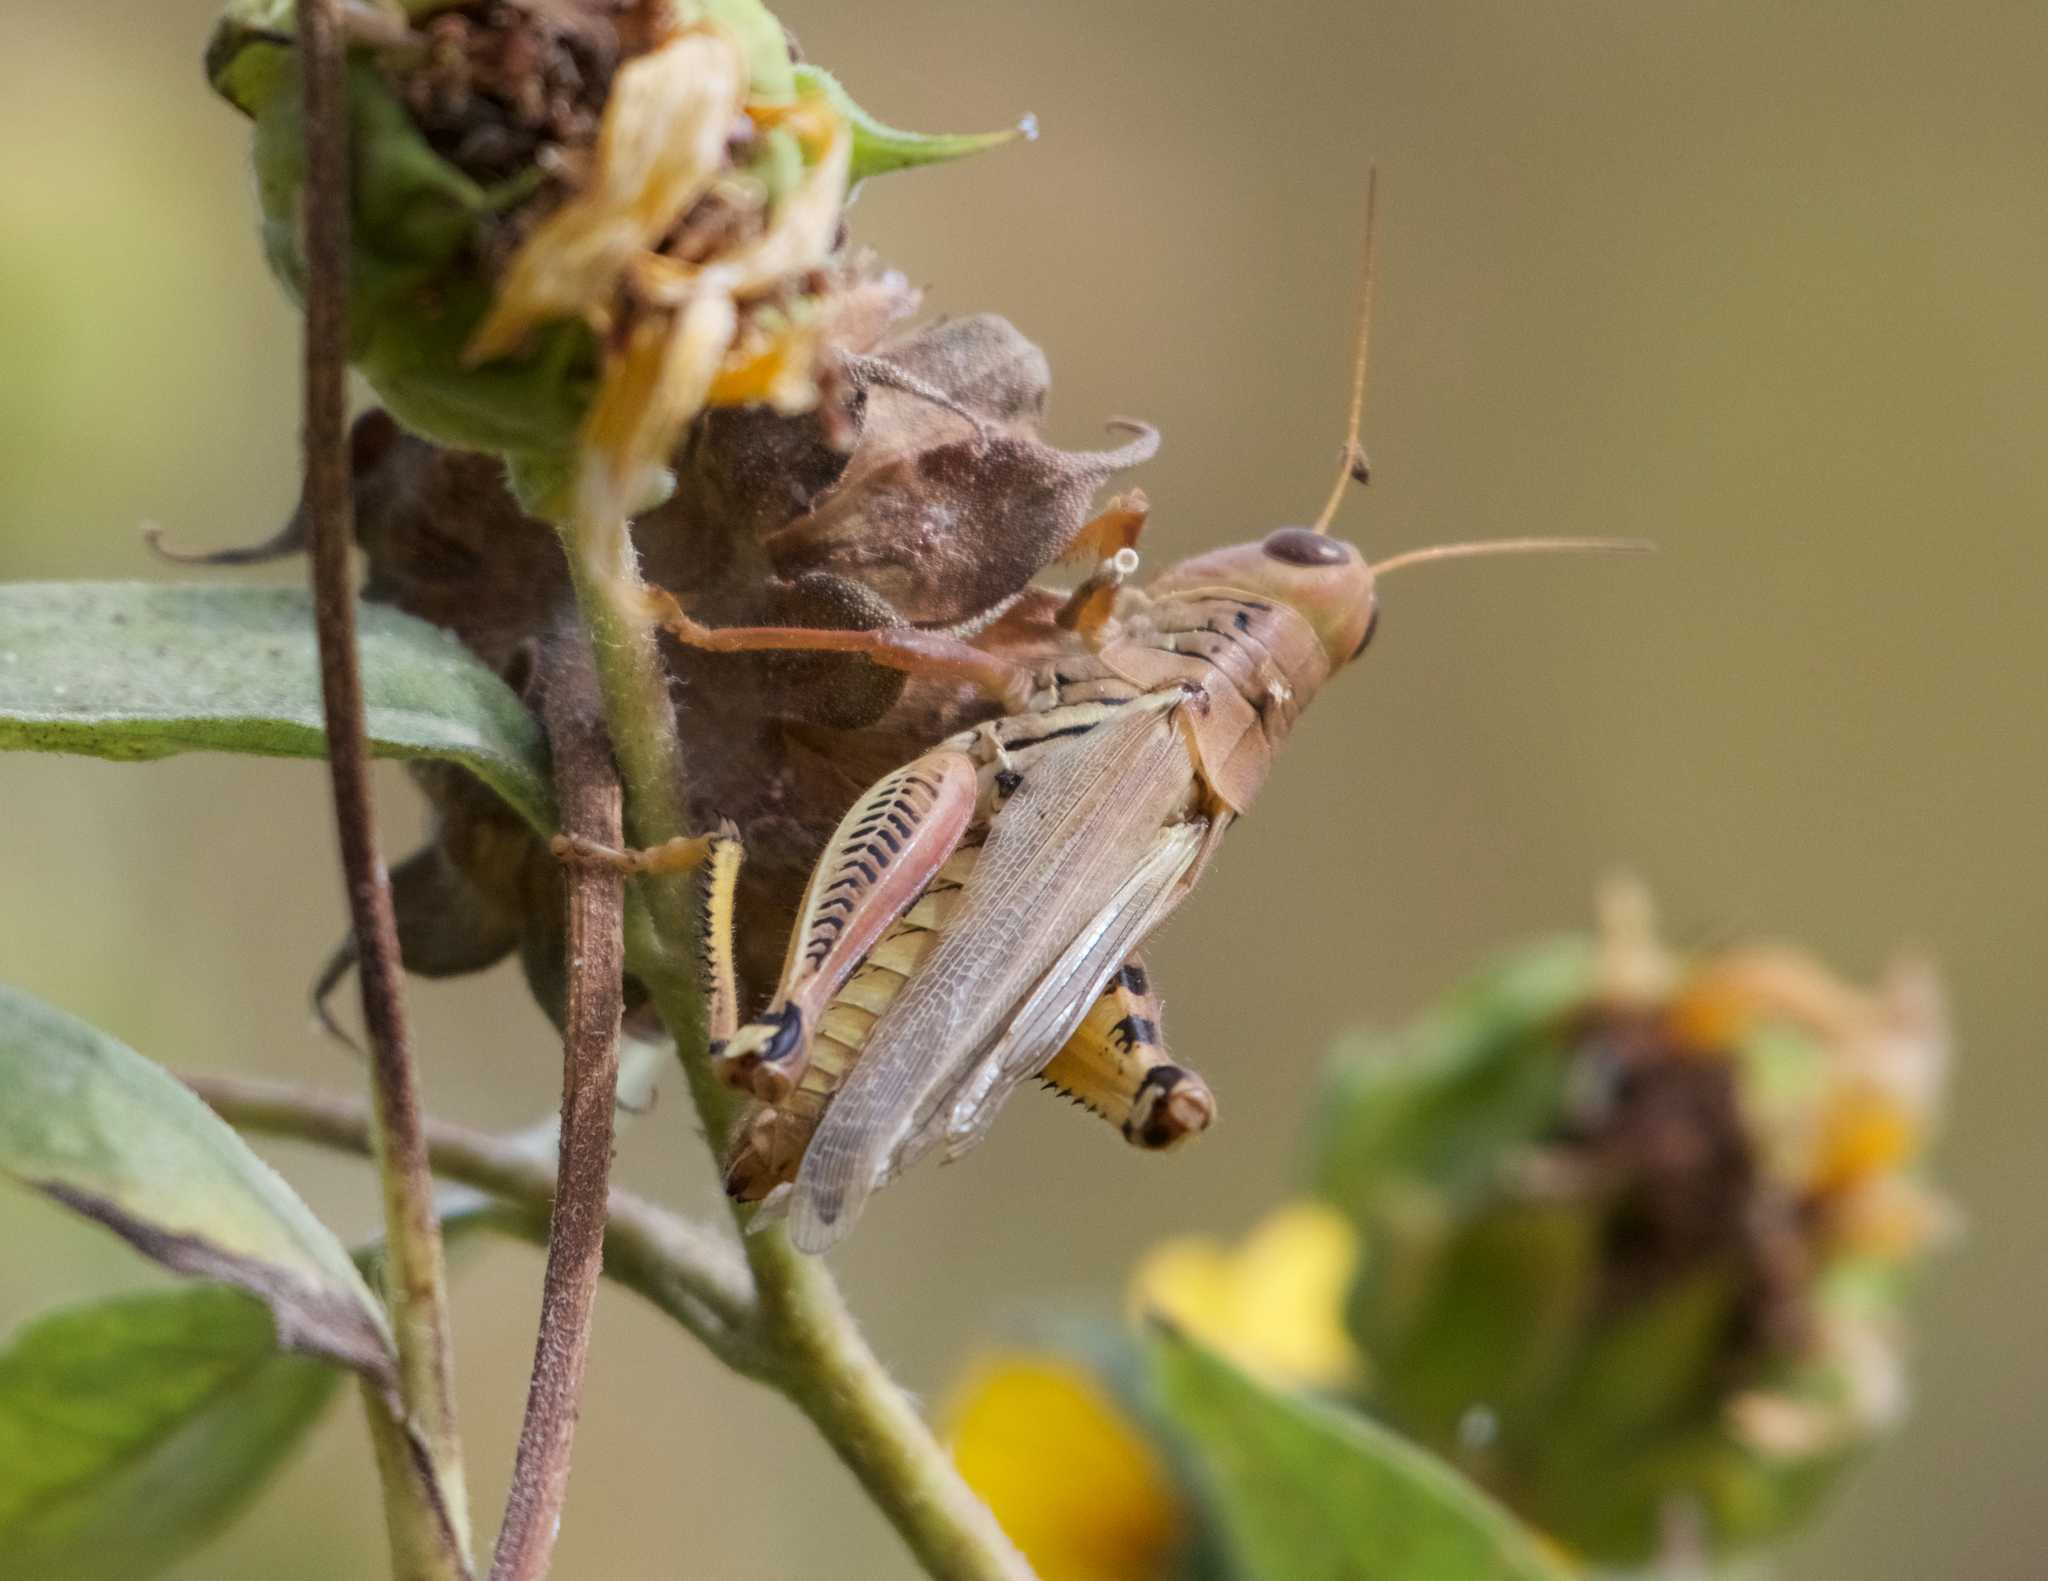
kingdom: Animalia
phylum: Arthropoda
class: Insecta
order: Orthoptera
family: Acrididae
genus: Melanoplus
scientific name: Melanoplus differentialis
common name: Differential grasshopper
